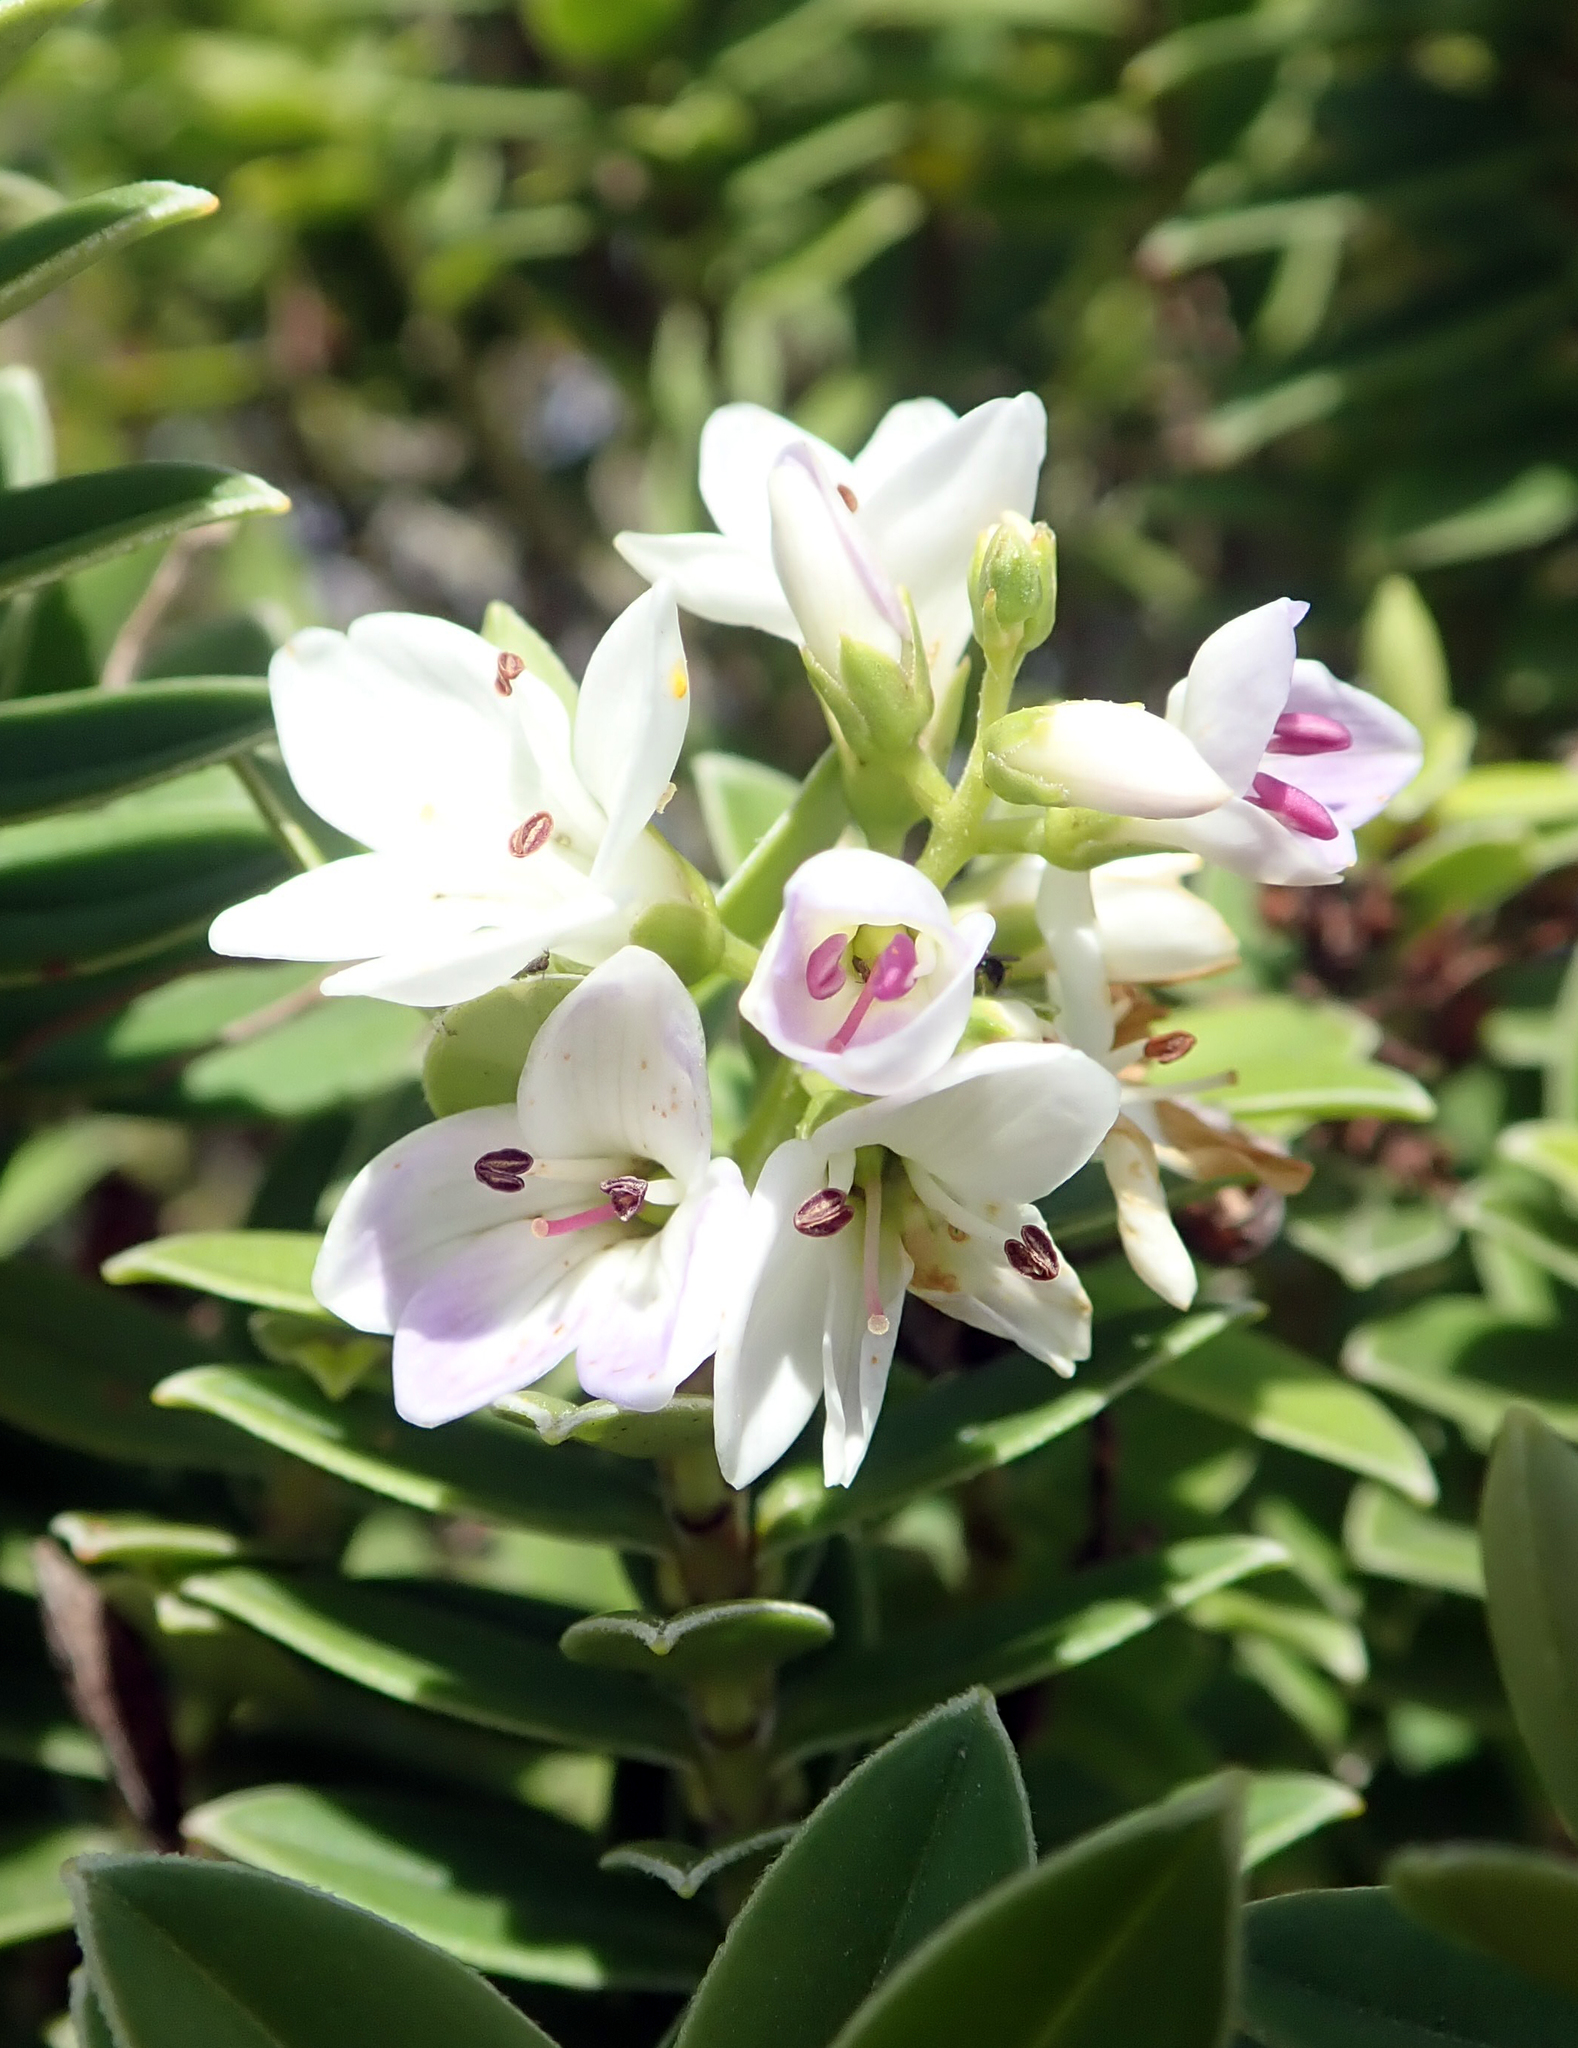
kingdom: Plantae
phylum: Tracheophyta
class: Magnoliopsida
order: Lamiales
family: Plantaginaceae
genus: Veronica
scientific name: Veronica elliptica
